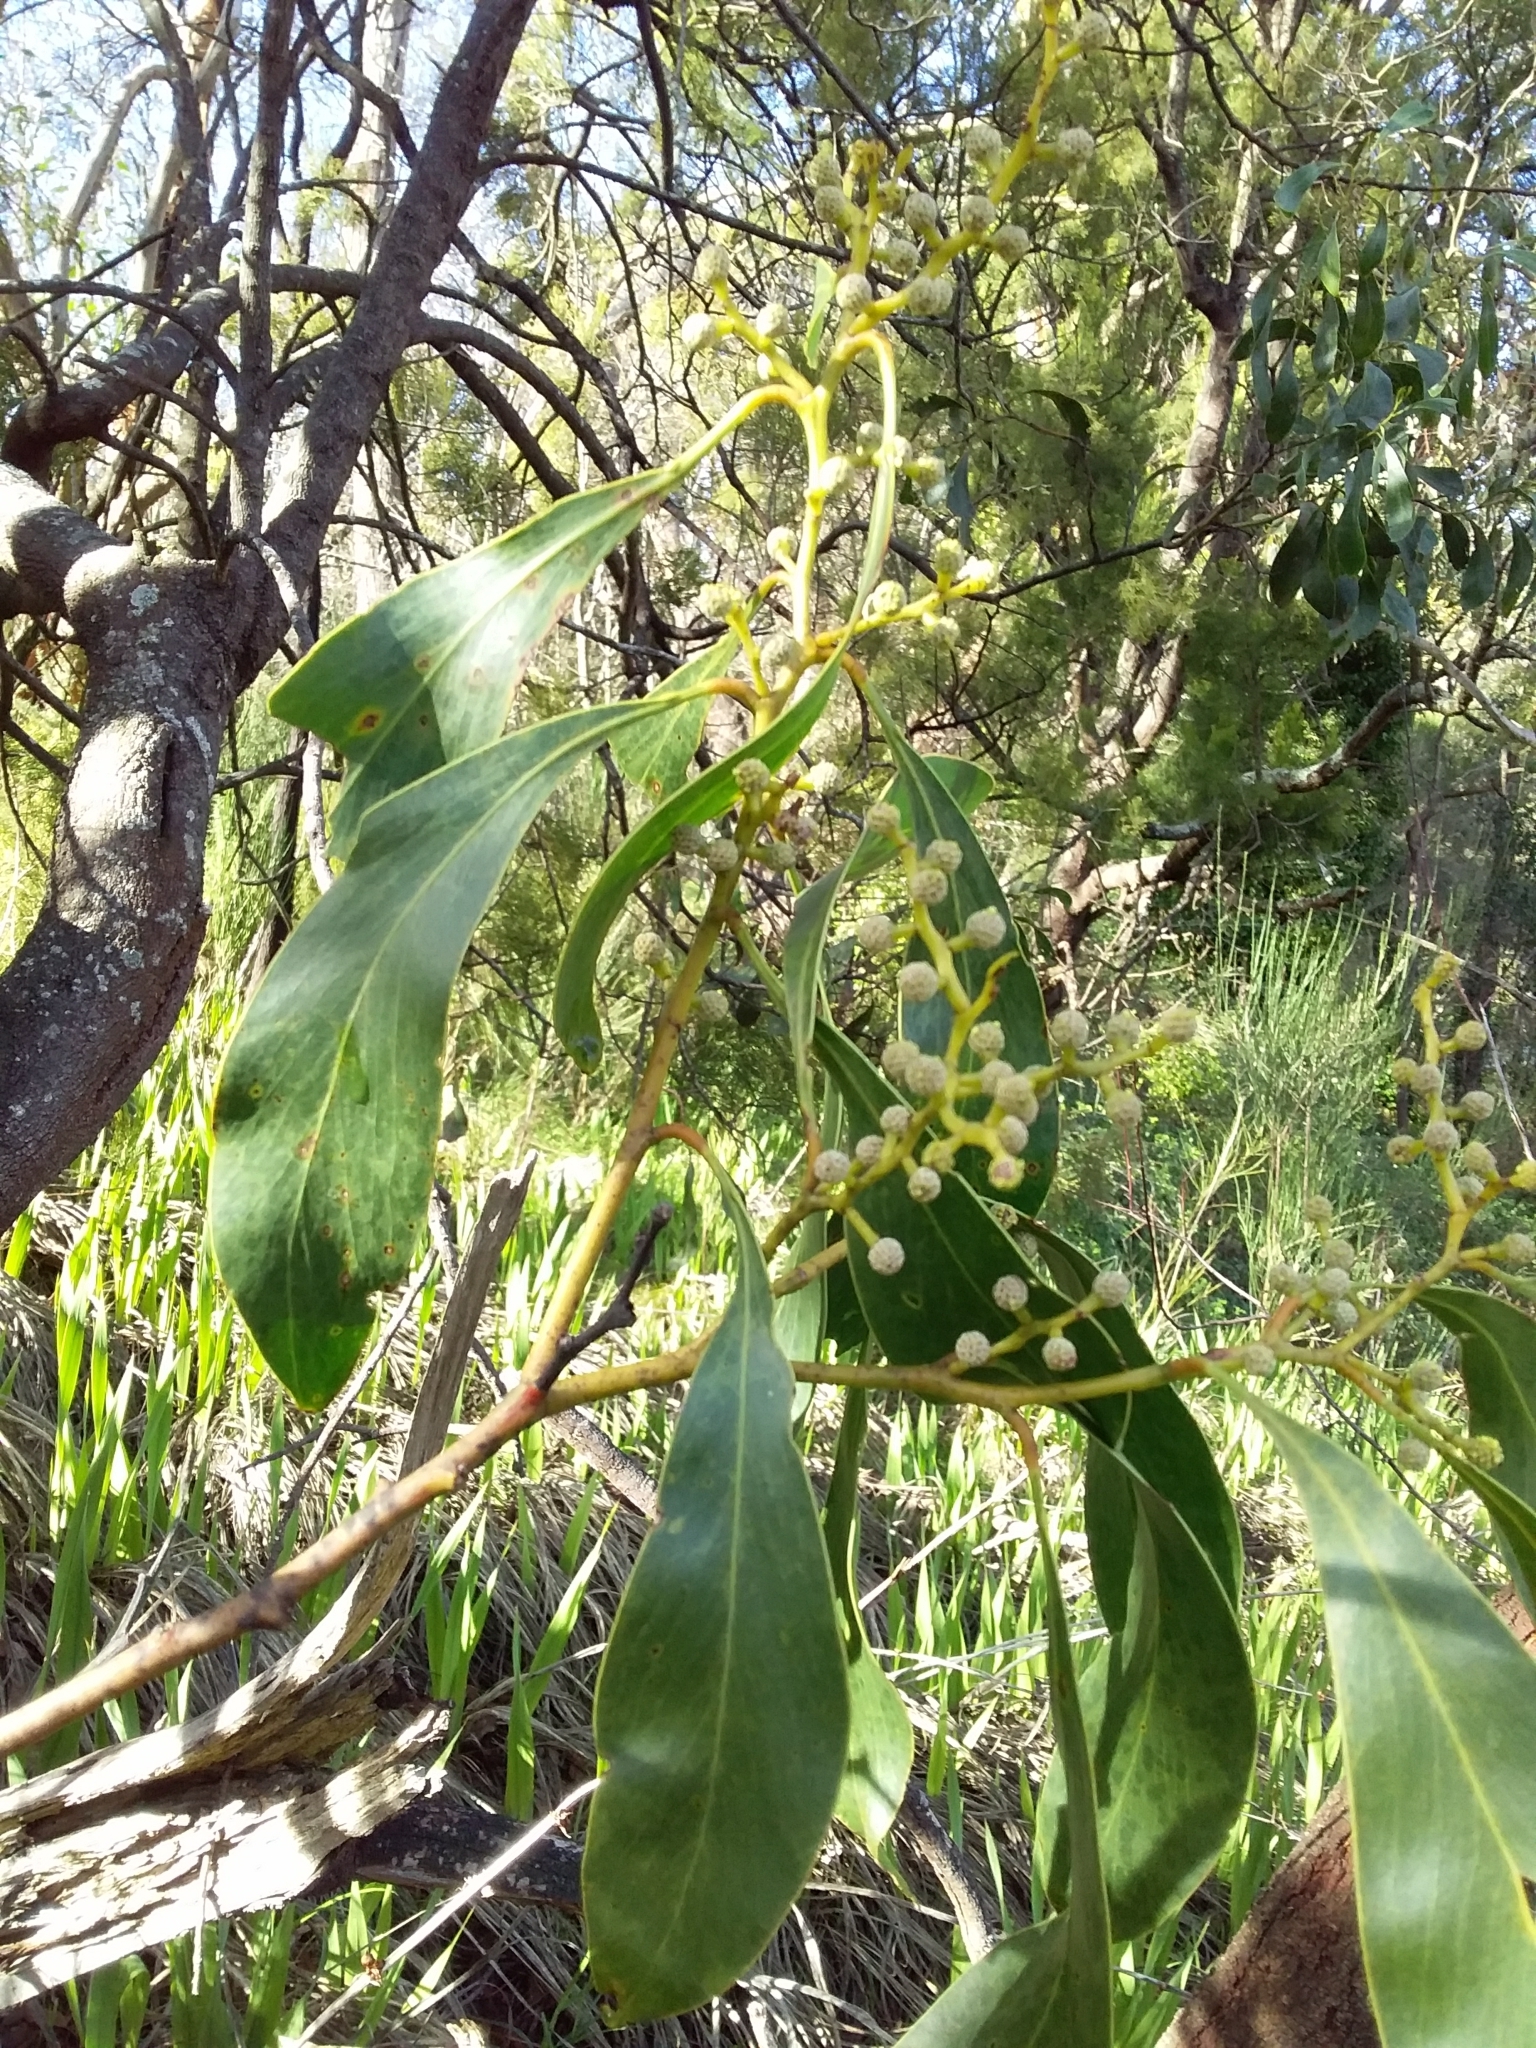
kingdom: Plantae
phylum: Tracheophyta
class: Magnoliopsida
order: Fabales
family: Fabaceae
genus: Acacia
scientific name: Acacia pycnantha
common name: Golden wattle
